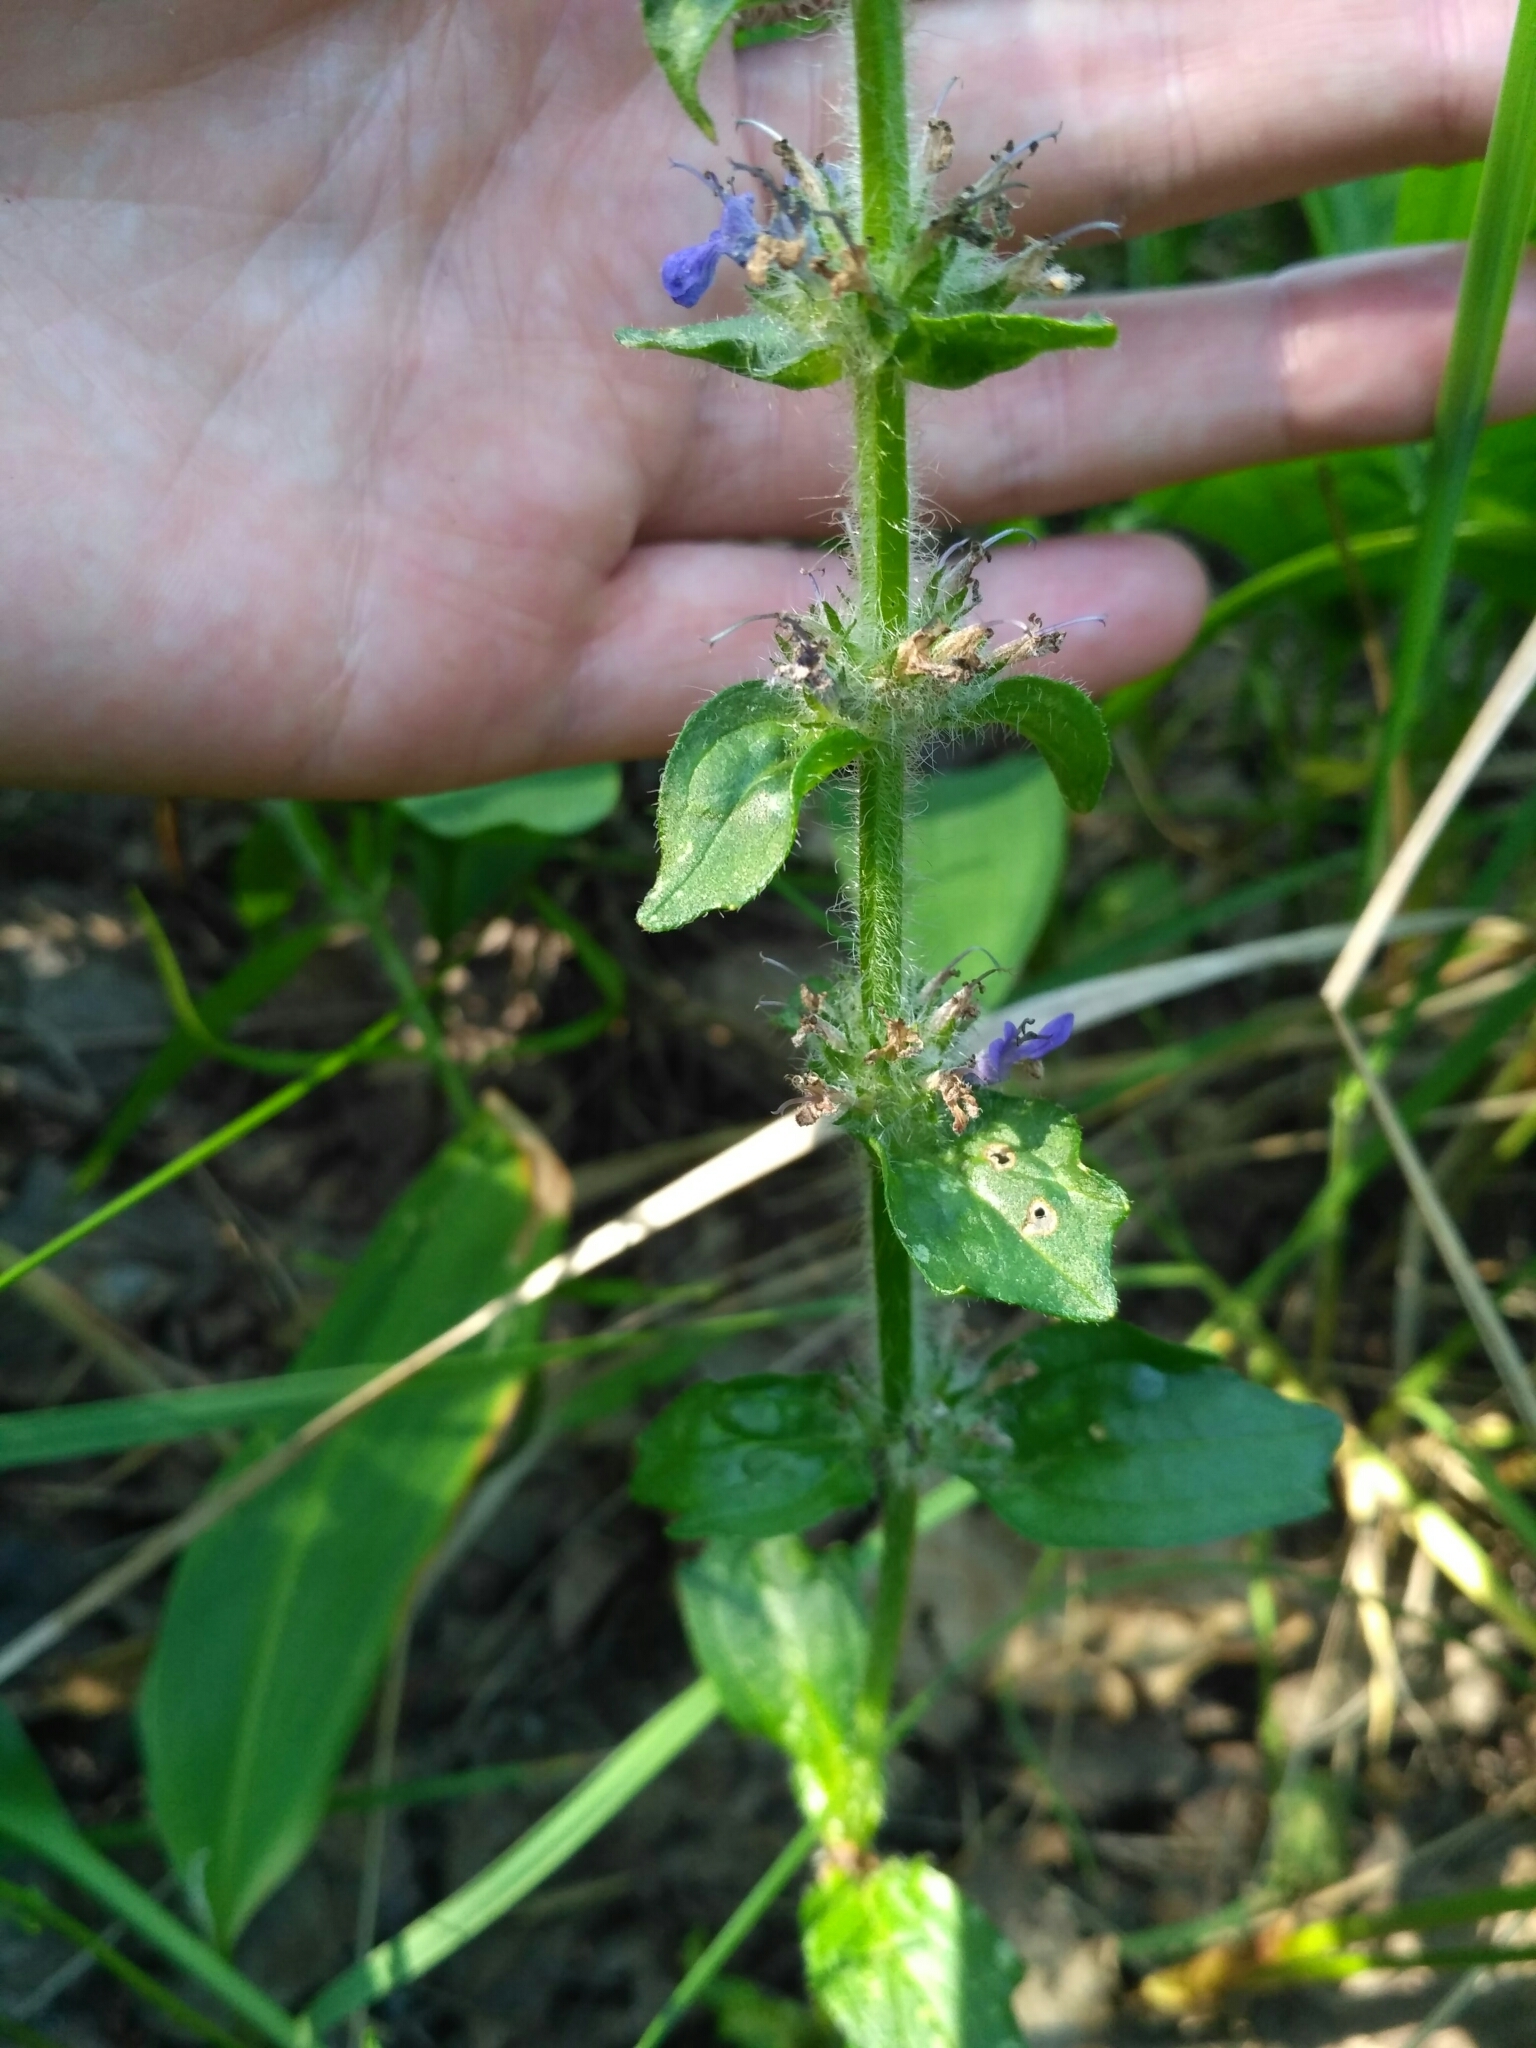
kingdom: Plantae
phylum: Tracheophyta
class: Magnoliopsida
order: Lamiales
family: Lamiaceae
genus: Ajuga
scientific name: Ajuga genevensis
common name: Blue bugle
